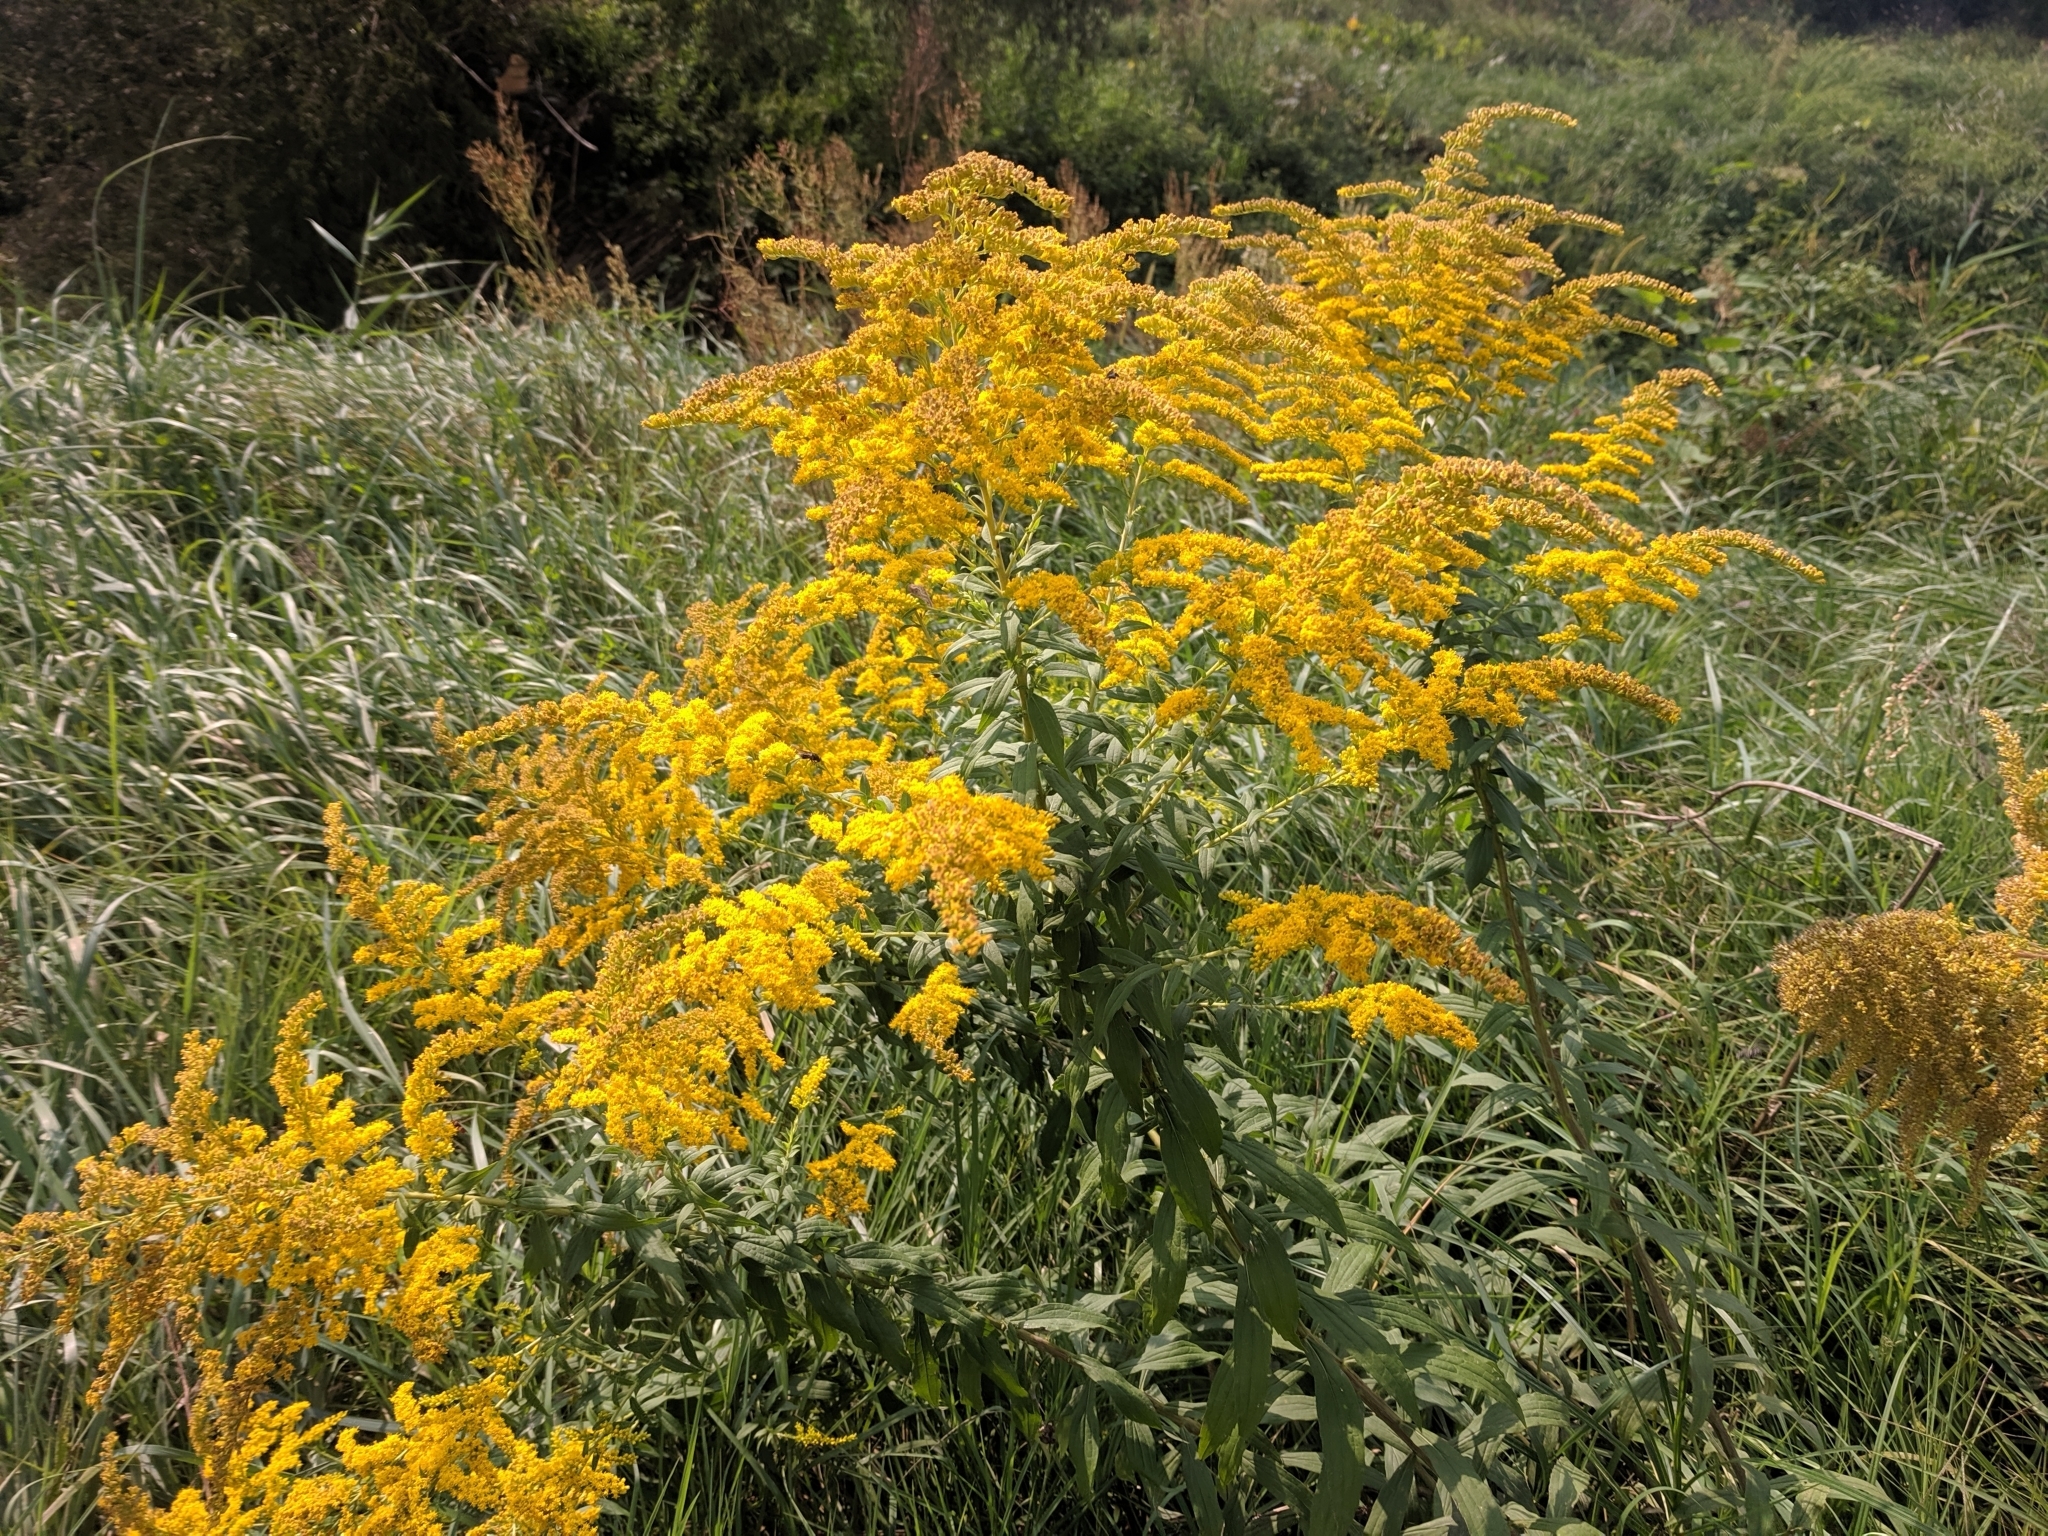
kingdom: Plantae
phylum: Tracheophyta
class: Magnoliopsida
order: Asterales
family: Asteraceae
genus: Solidago
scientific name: Solidago canadensis
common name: Canada goldenrod
